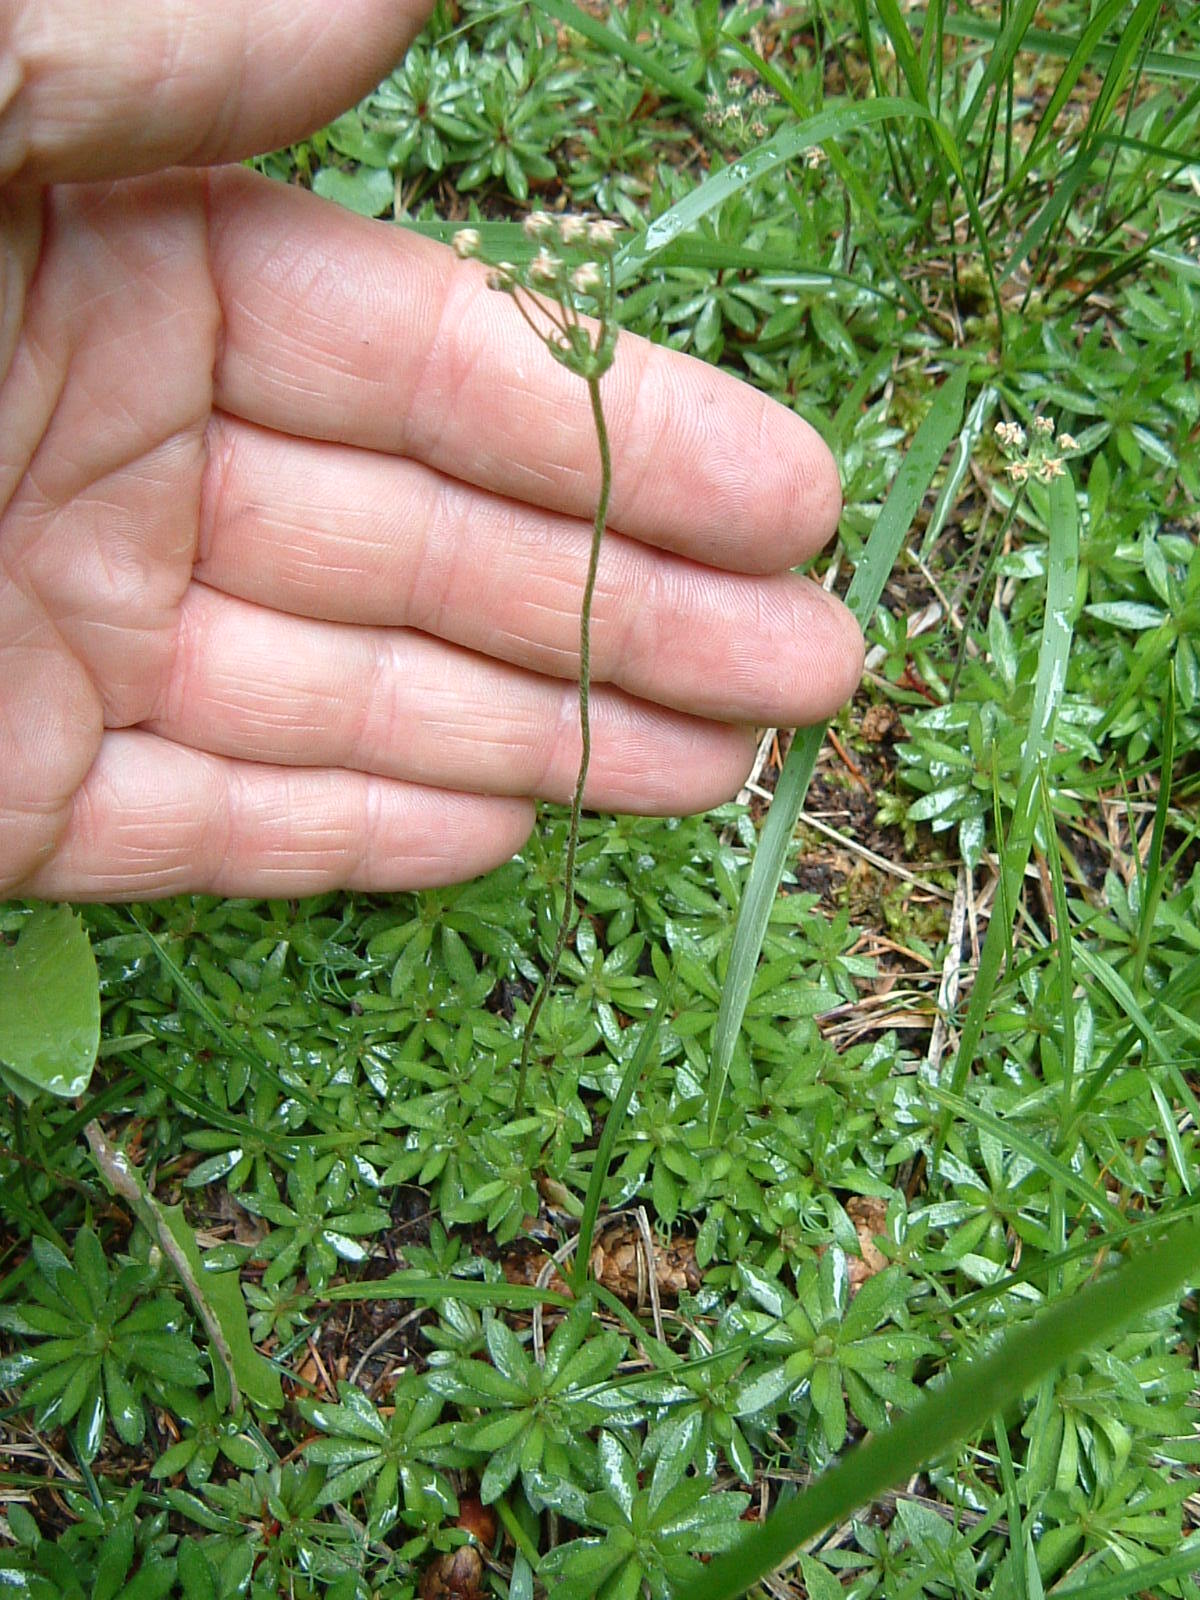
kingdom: Plantae
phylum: Tracheophyta
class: Magnoliopsida
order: Ericales
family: Primulaceae
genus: Androsace
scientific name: Androsace septentrionalis
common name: Hairy northern fairy-candelabra
